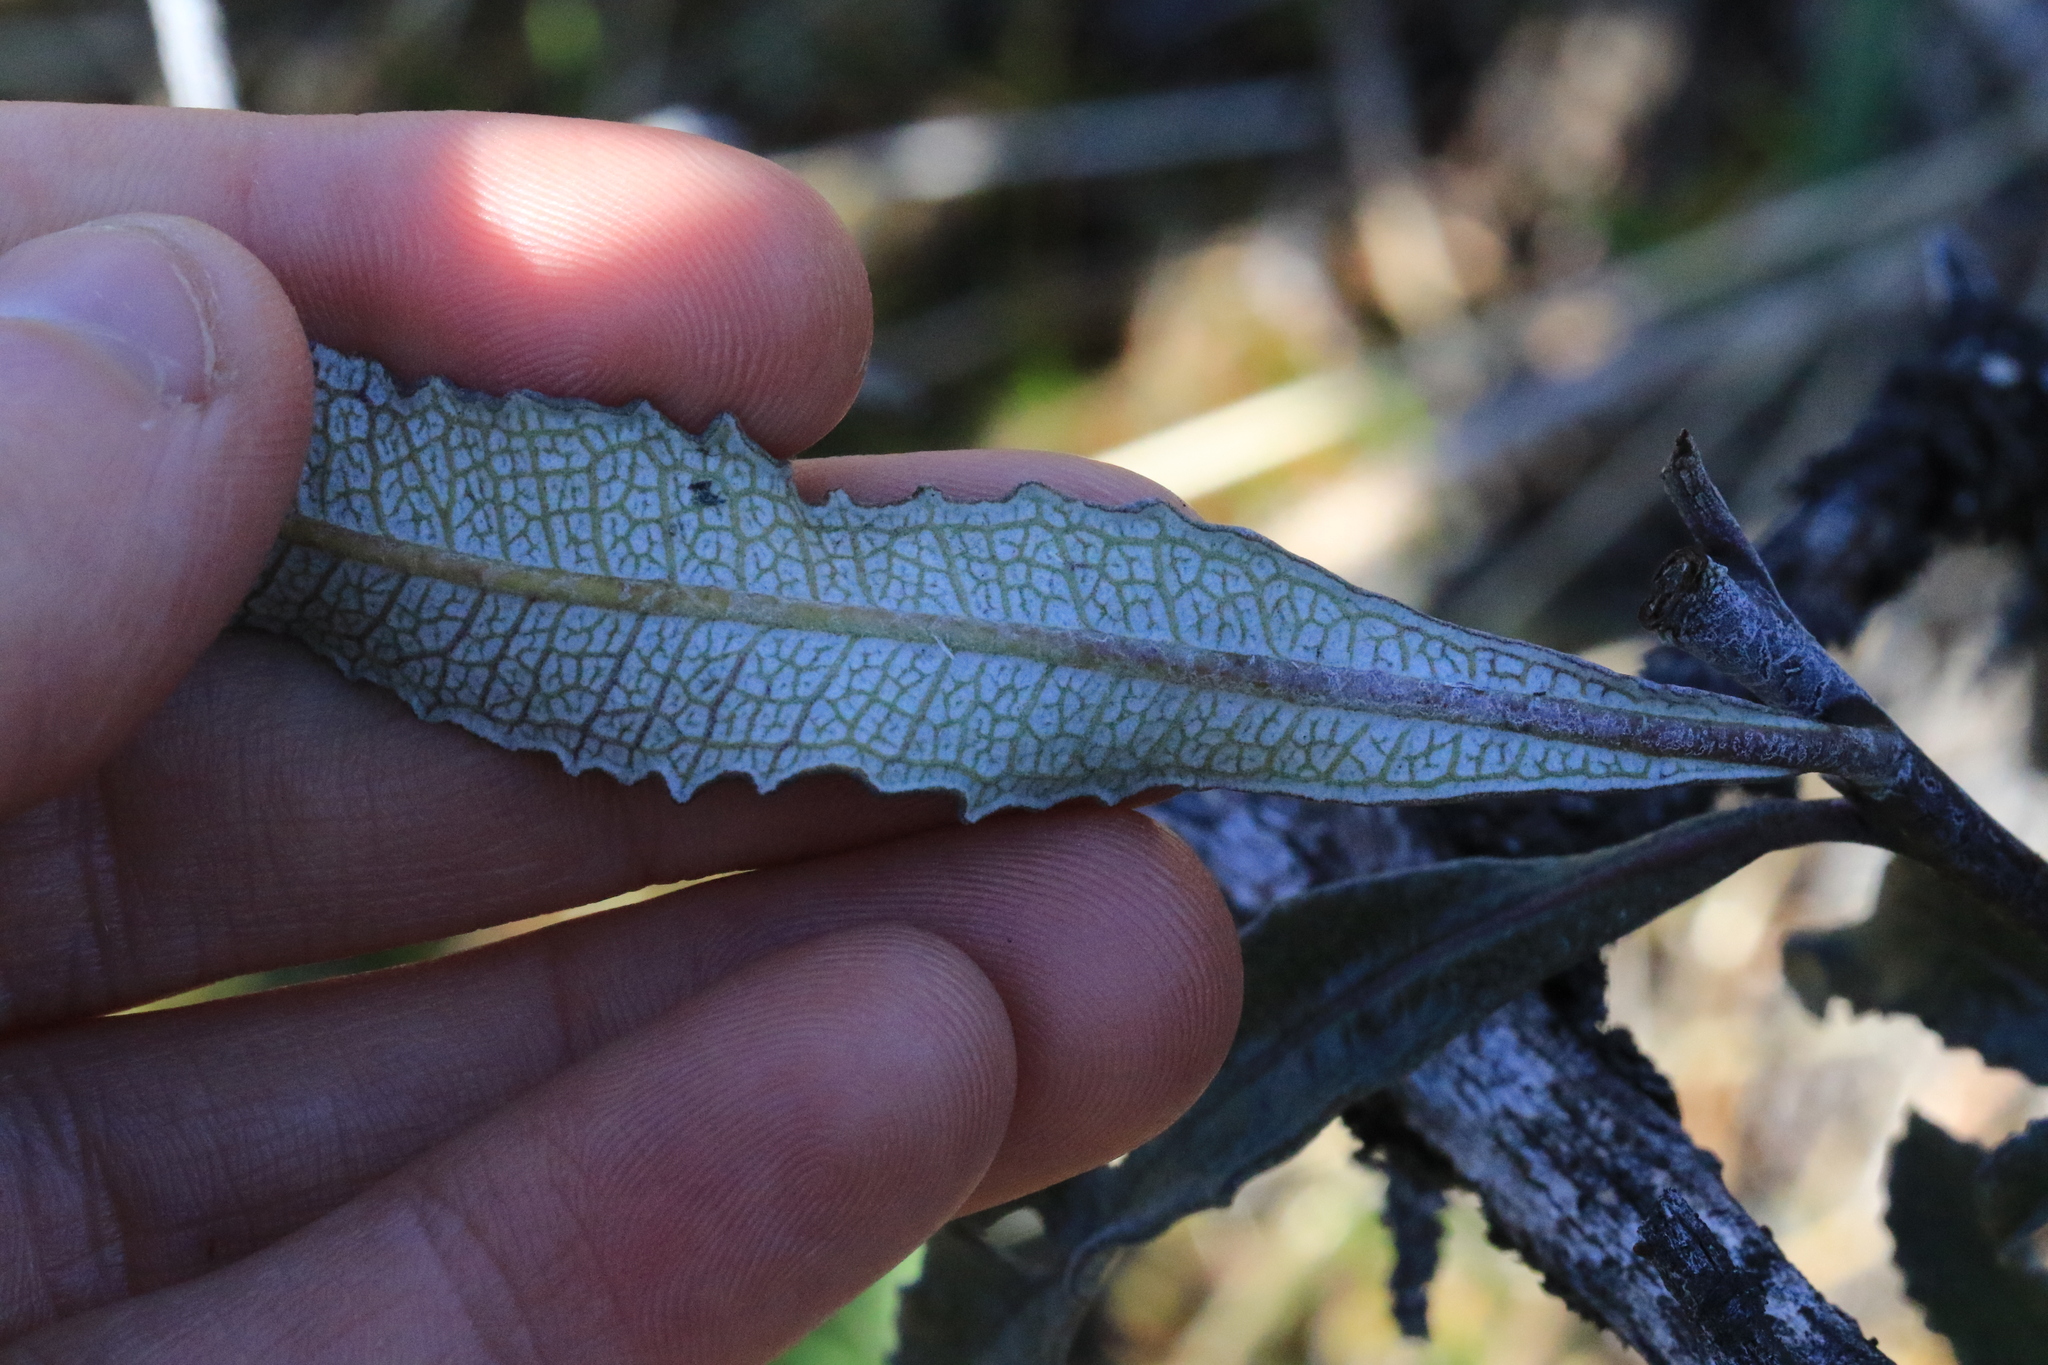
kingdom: Plantae
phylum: Tracheophyta
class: Magnoliopsida
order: Boraginales
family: Namaceae
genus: Eriodictyon
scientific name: Eriodictyon californicum
